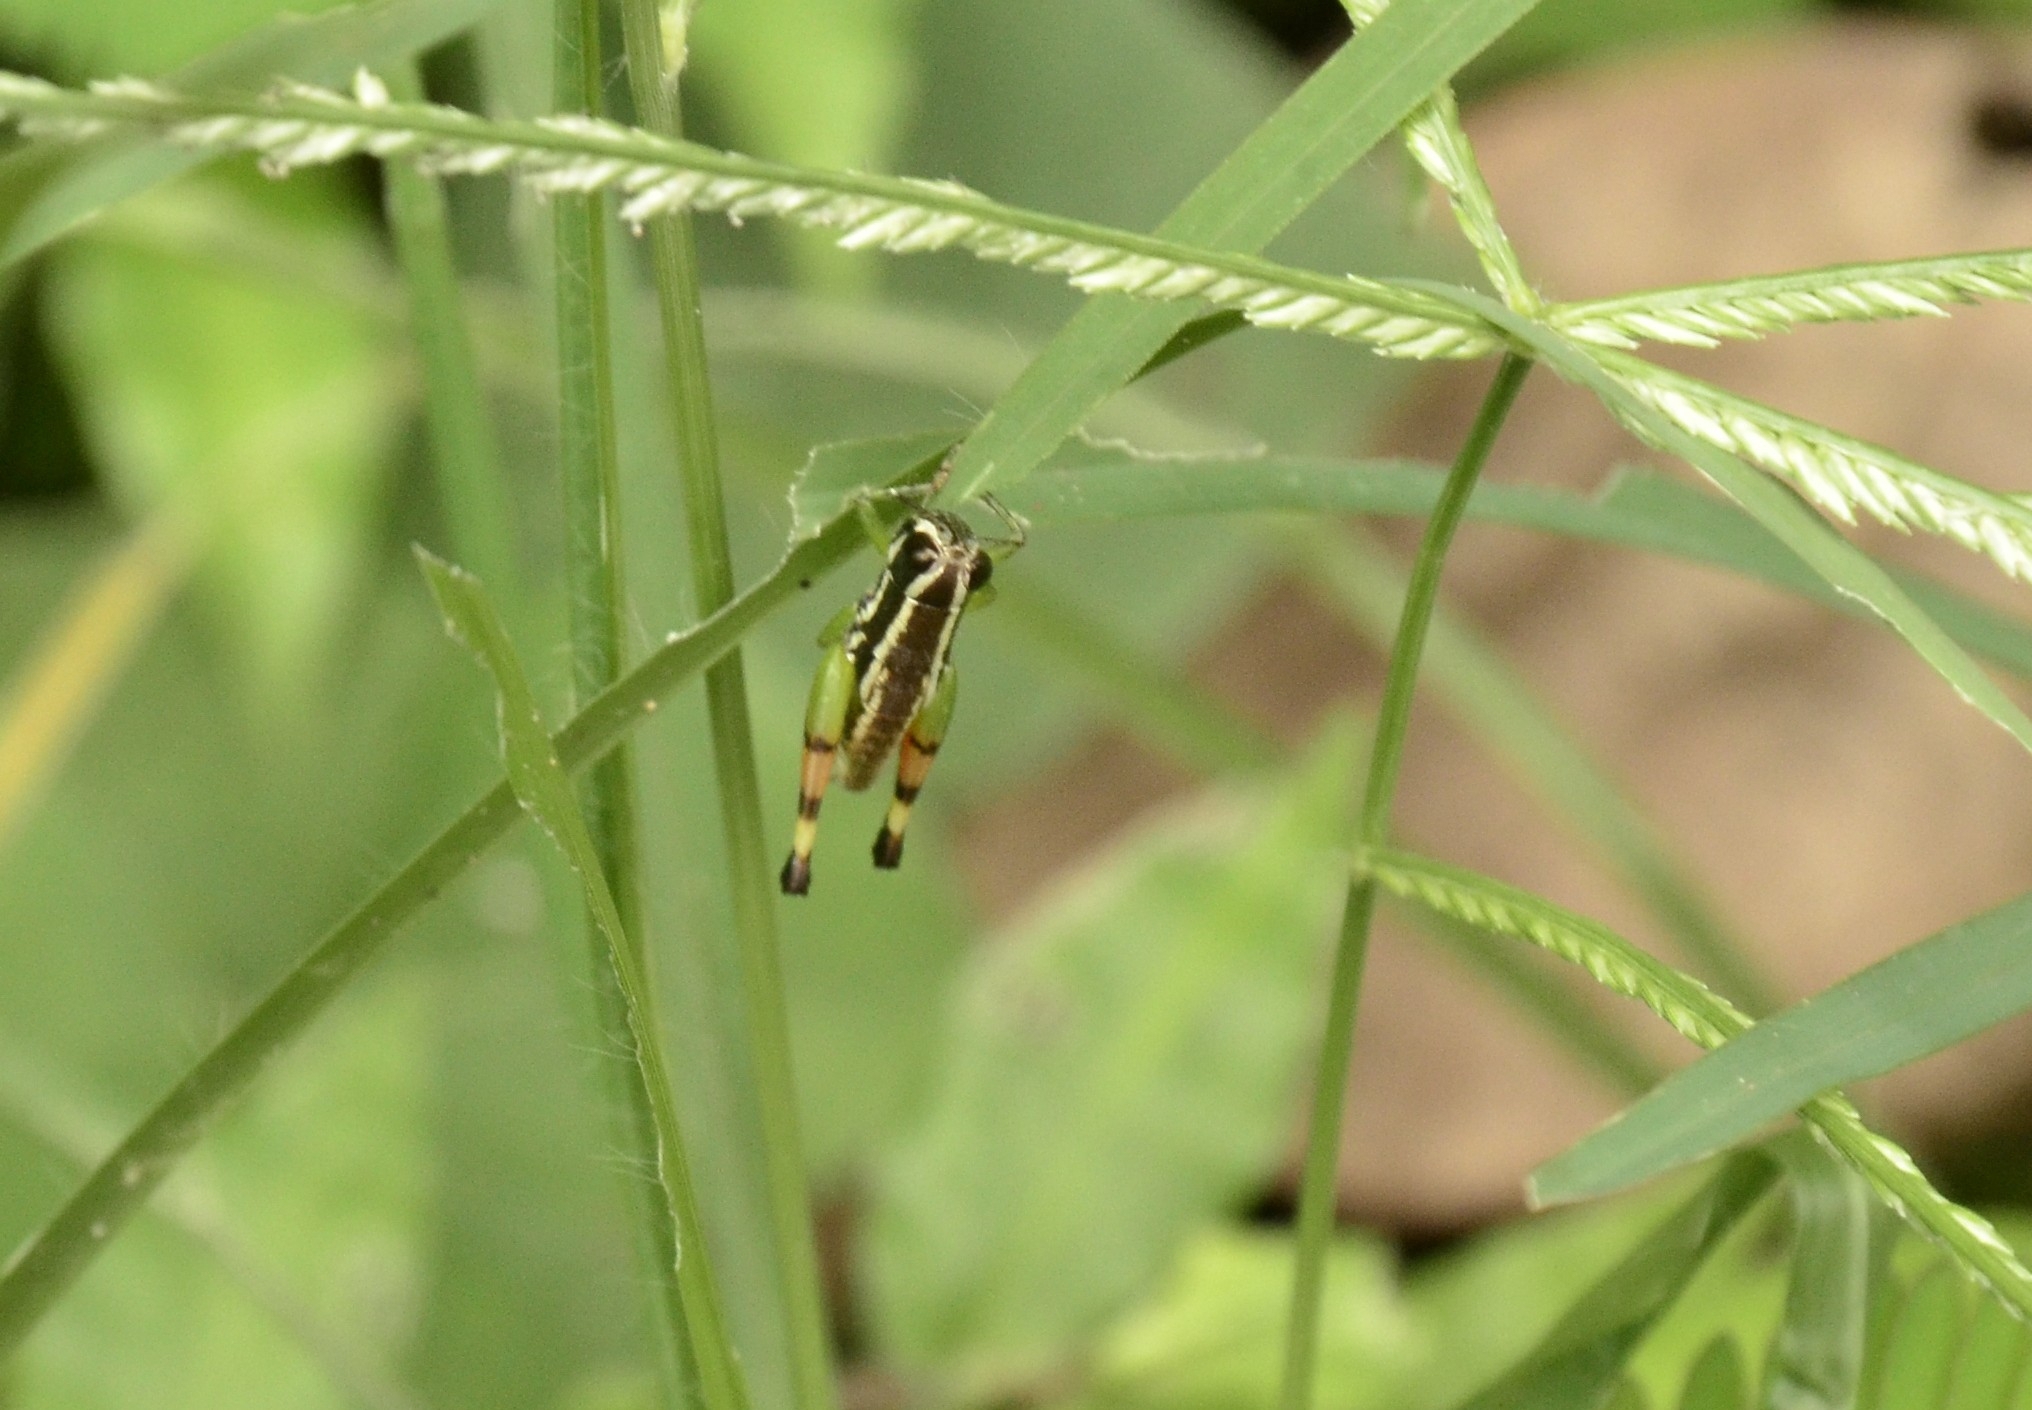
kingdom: Animalia
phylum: Arthropoda
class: Insecta
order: Orthoptera
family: Acrididae
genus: Chitaura
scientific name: Chitaura indica
